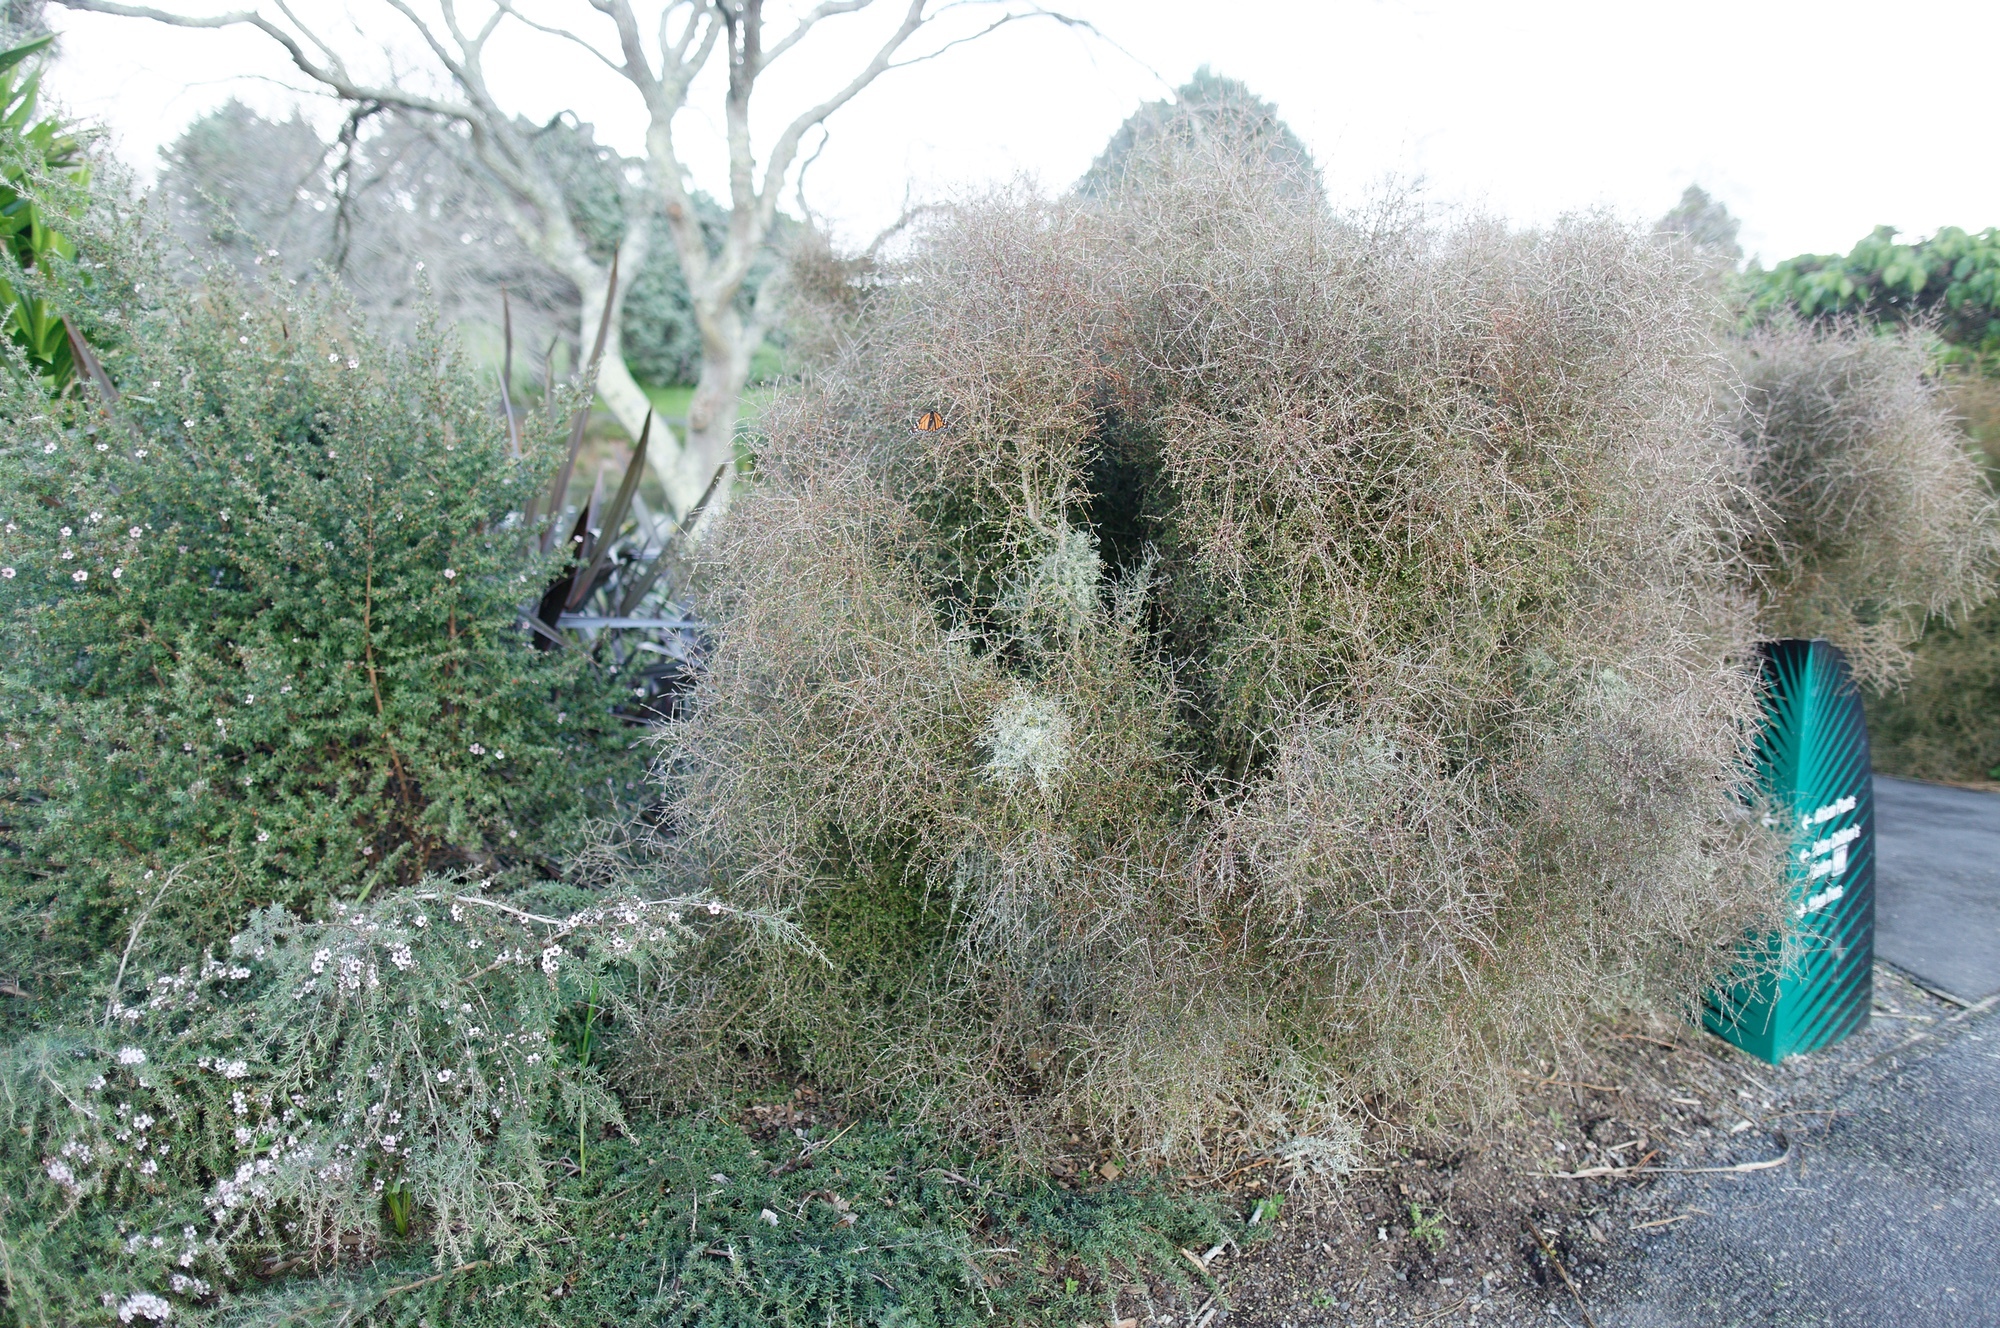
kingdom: Animalia
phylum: Arthropoda
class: Insecta
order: Lepidoptera
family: Nymphalidae
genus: Danaus
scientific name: Danaus plexippus
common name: Monarch
